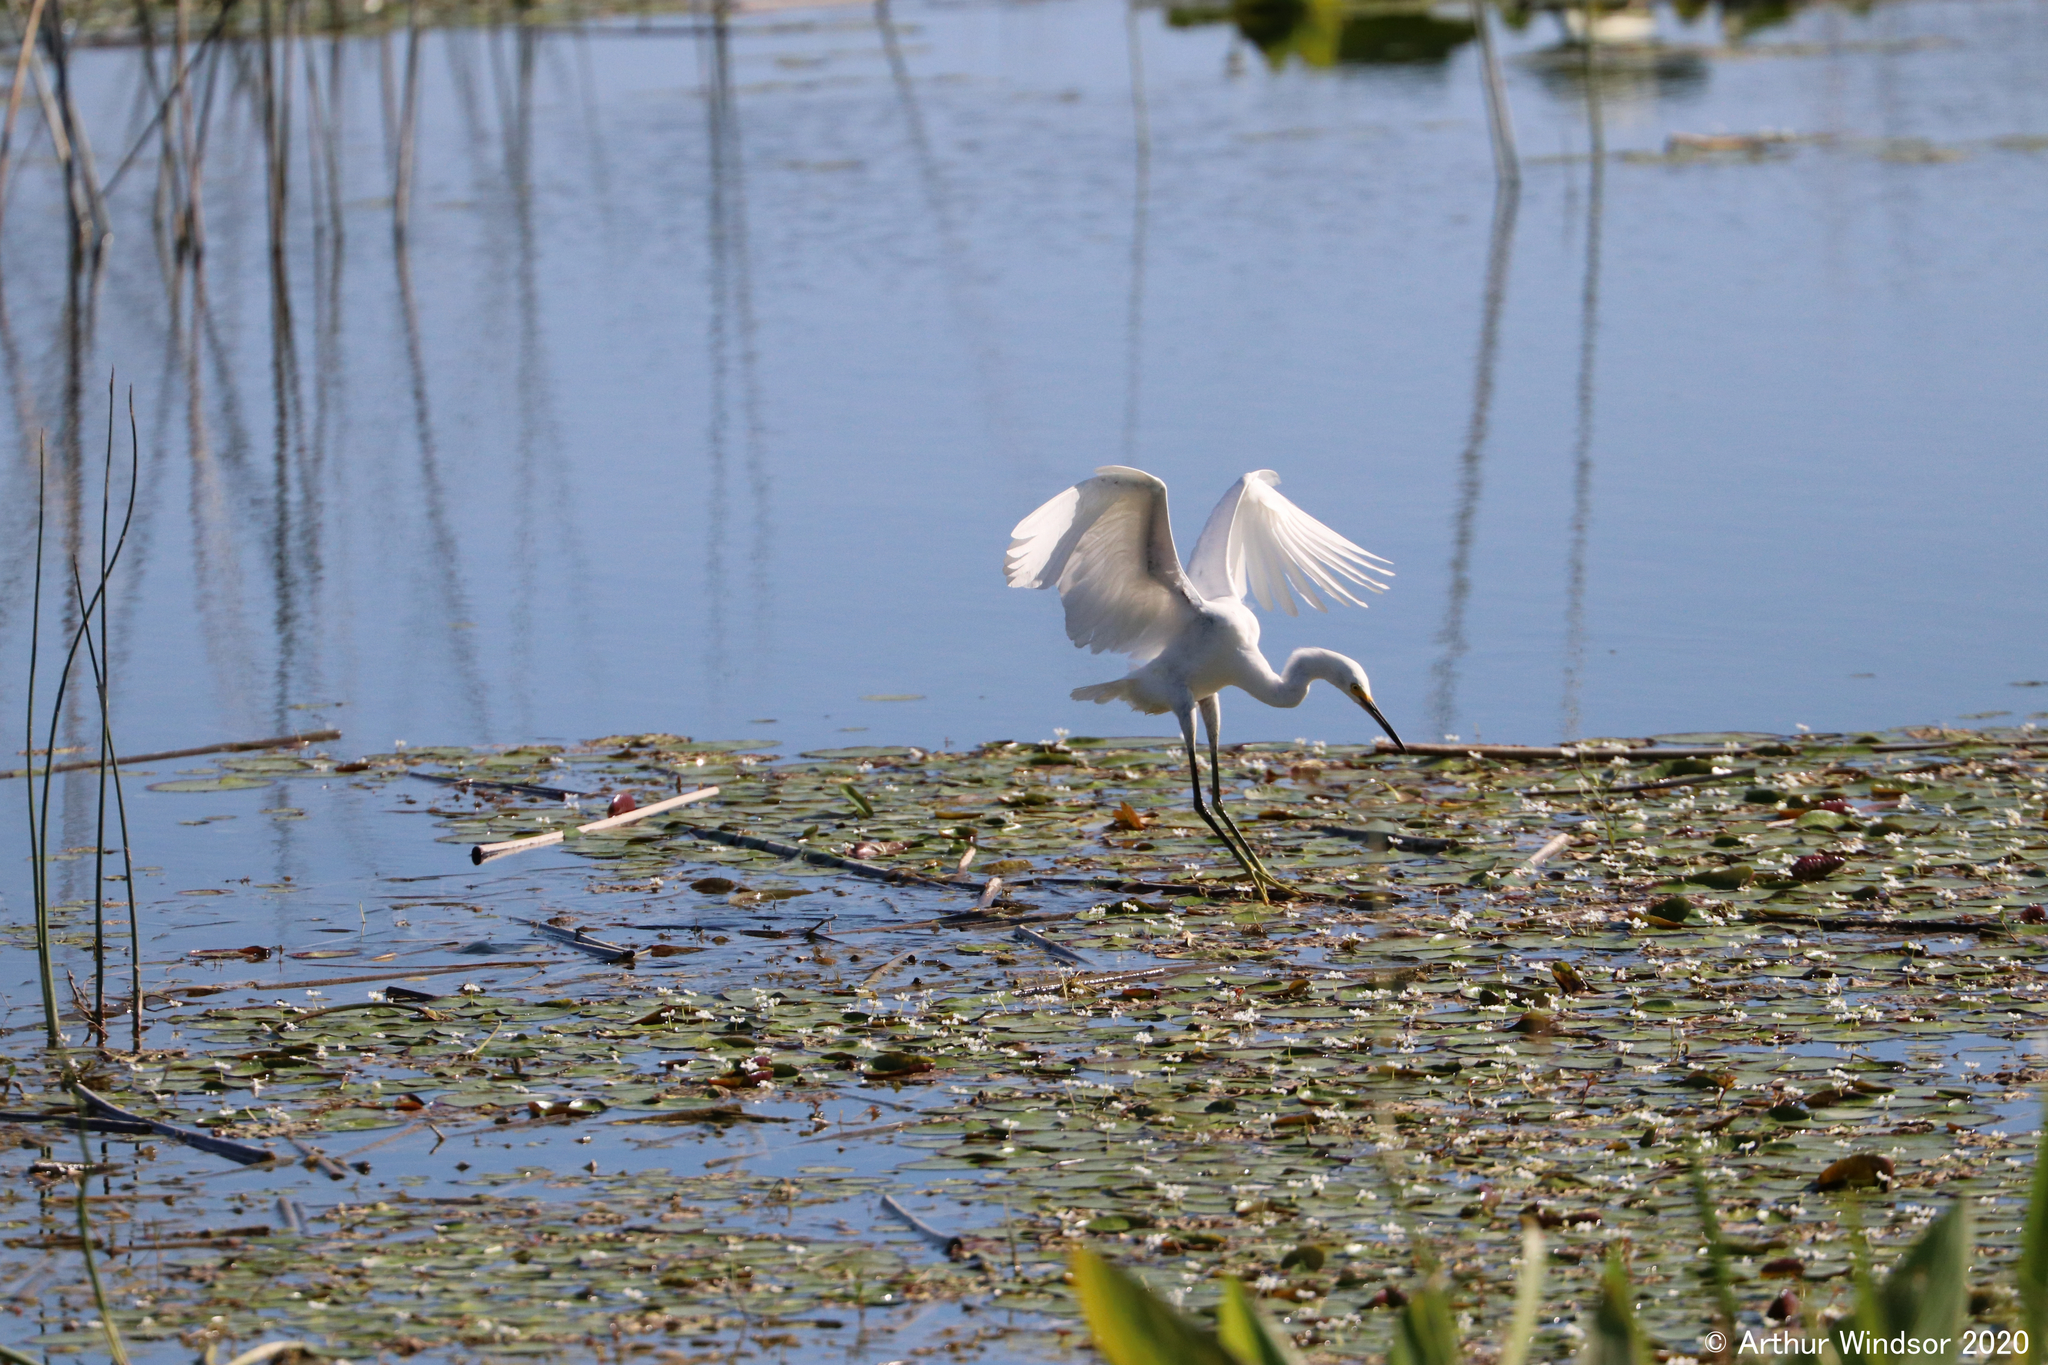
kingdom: Animalia
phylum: Chordata
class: Aves
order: Pelecaniformes
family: Ardeidae
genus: Egretta
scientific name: Egretta thula
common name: Snowy egret
